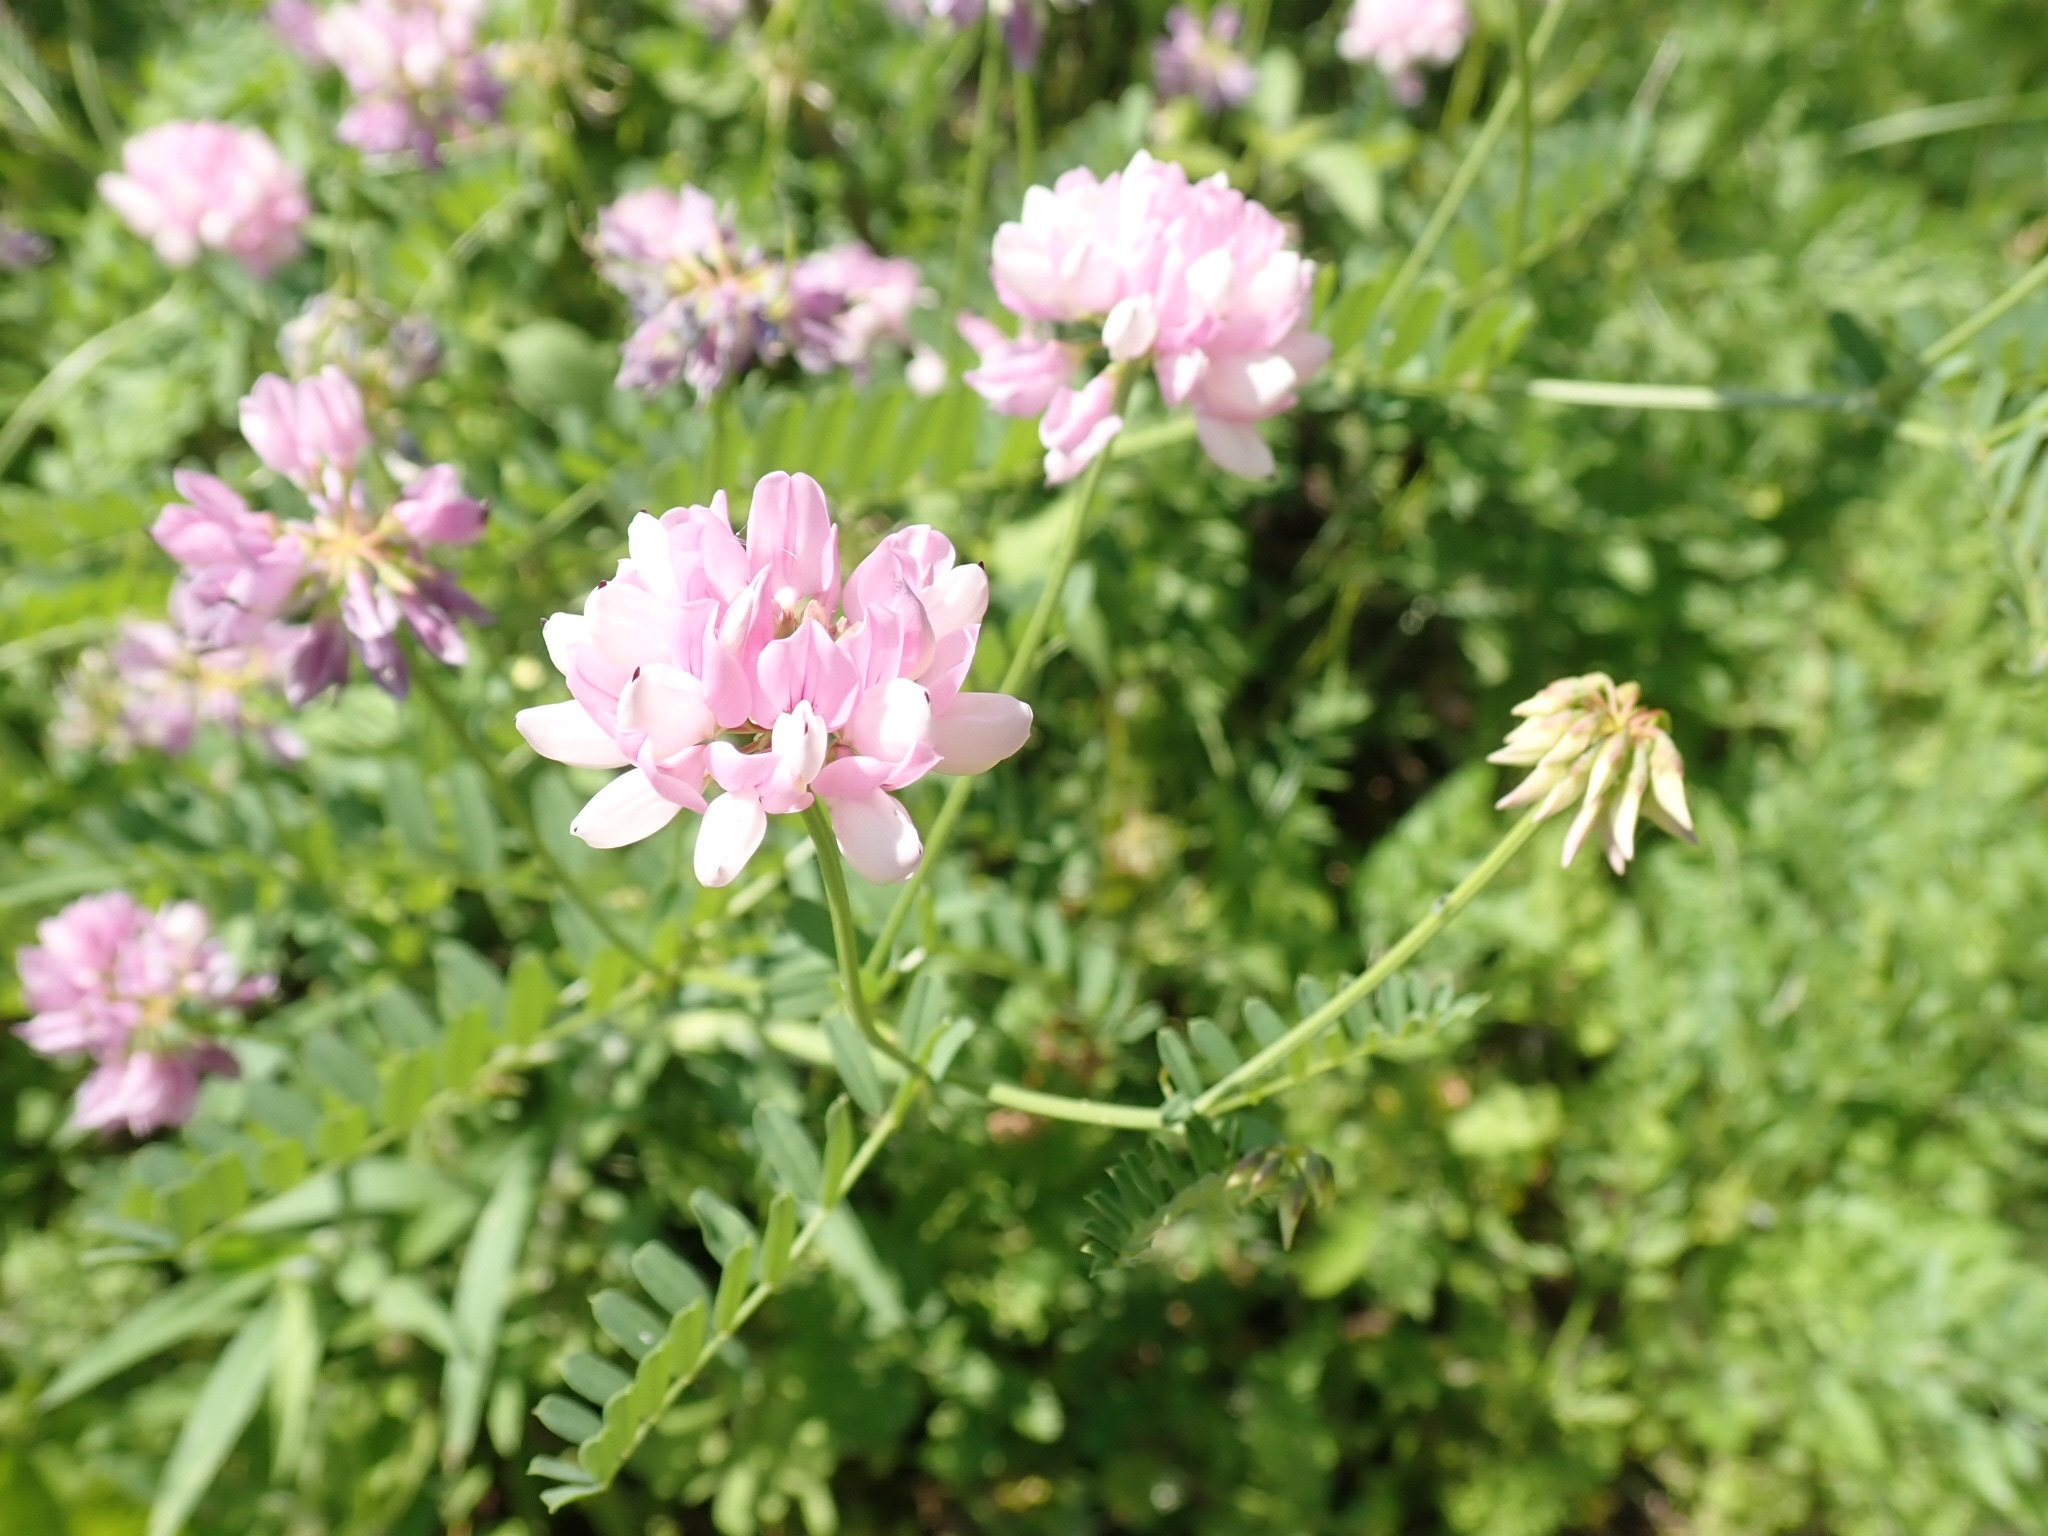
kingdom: Plantae
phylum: Tracheophyta
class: Magnoliopsida
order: Fabales
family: Fabaceae
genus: Coronilla
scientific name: Coronilla varia
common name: Crownvetch
